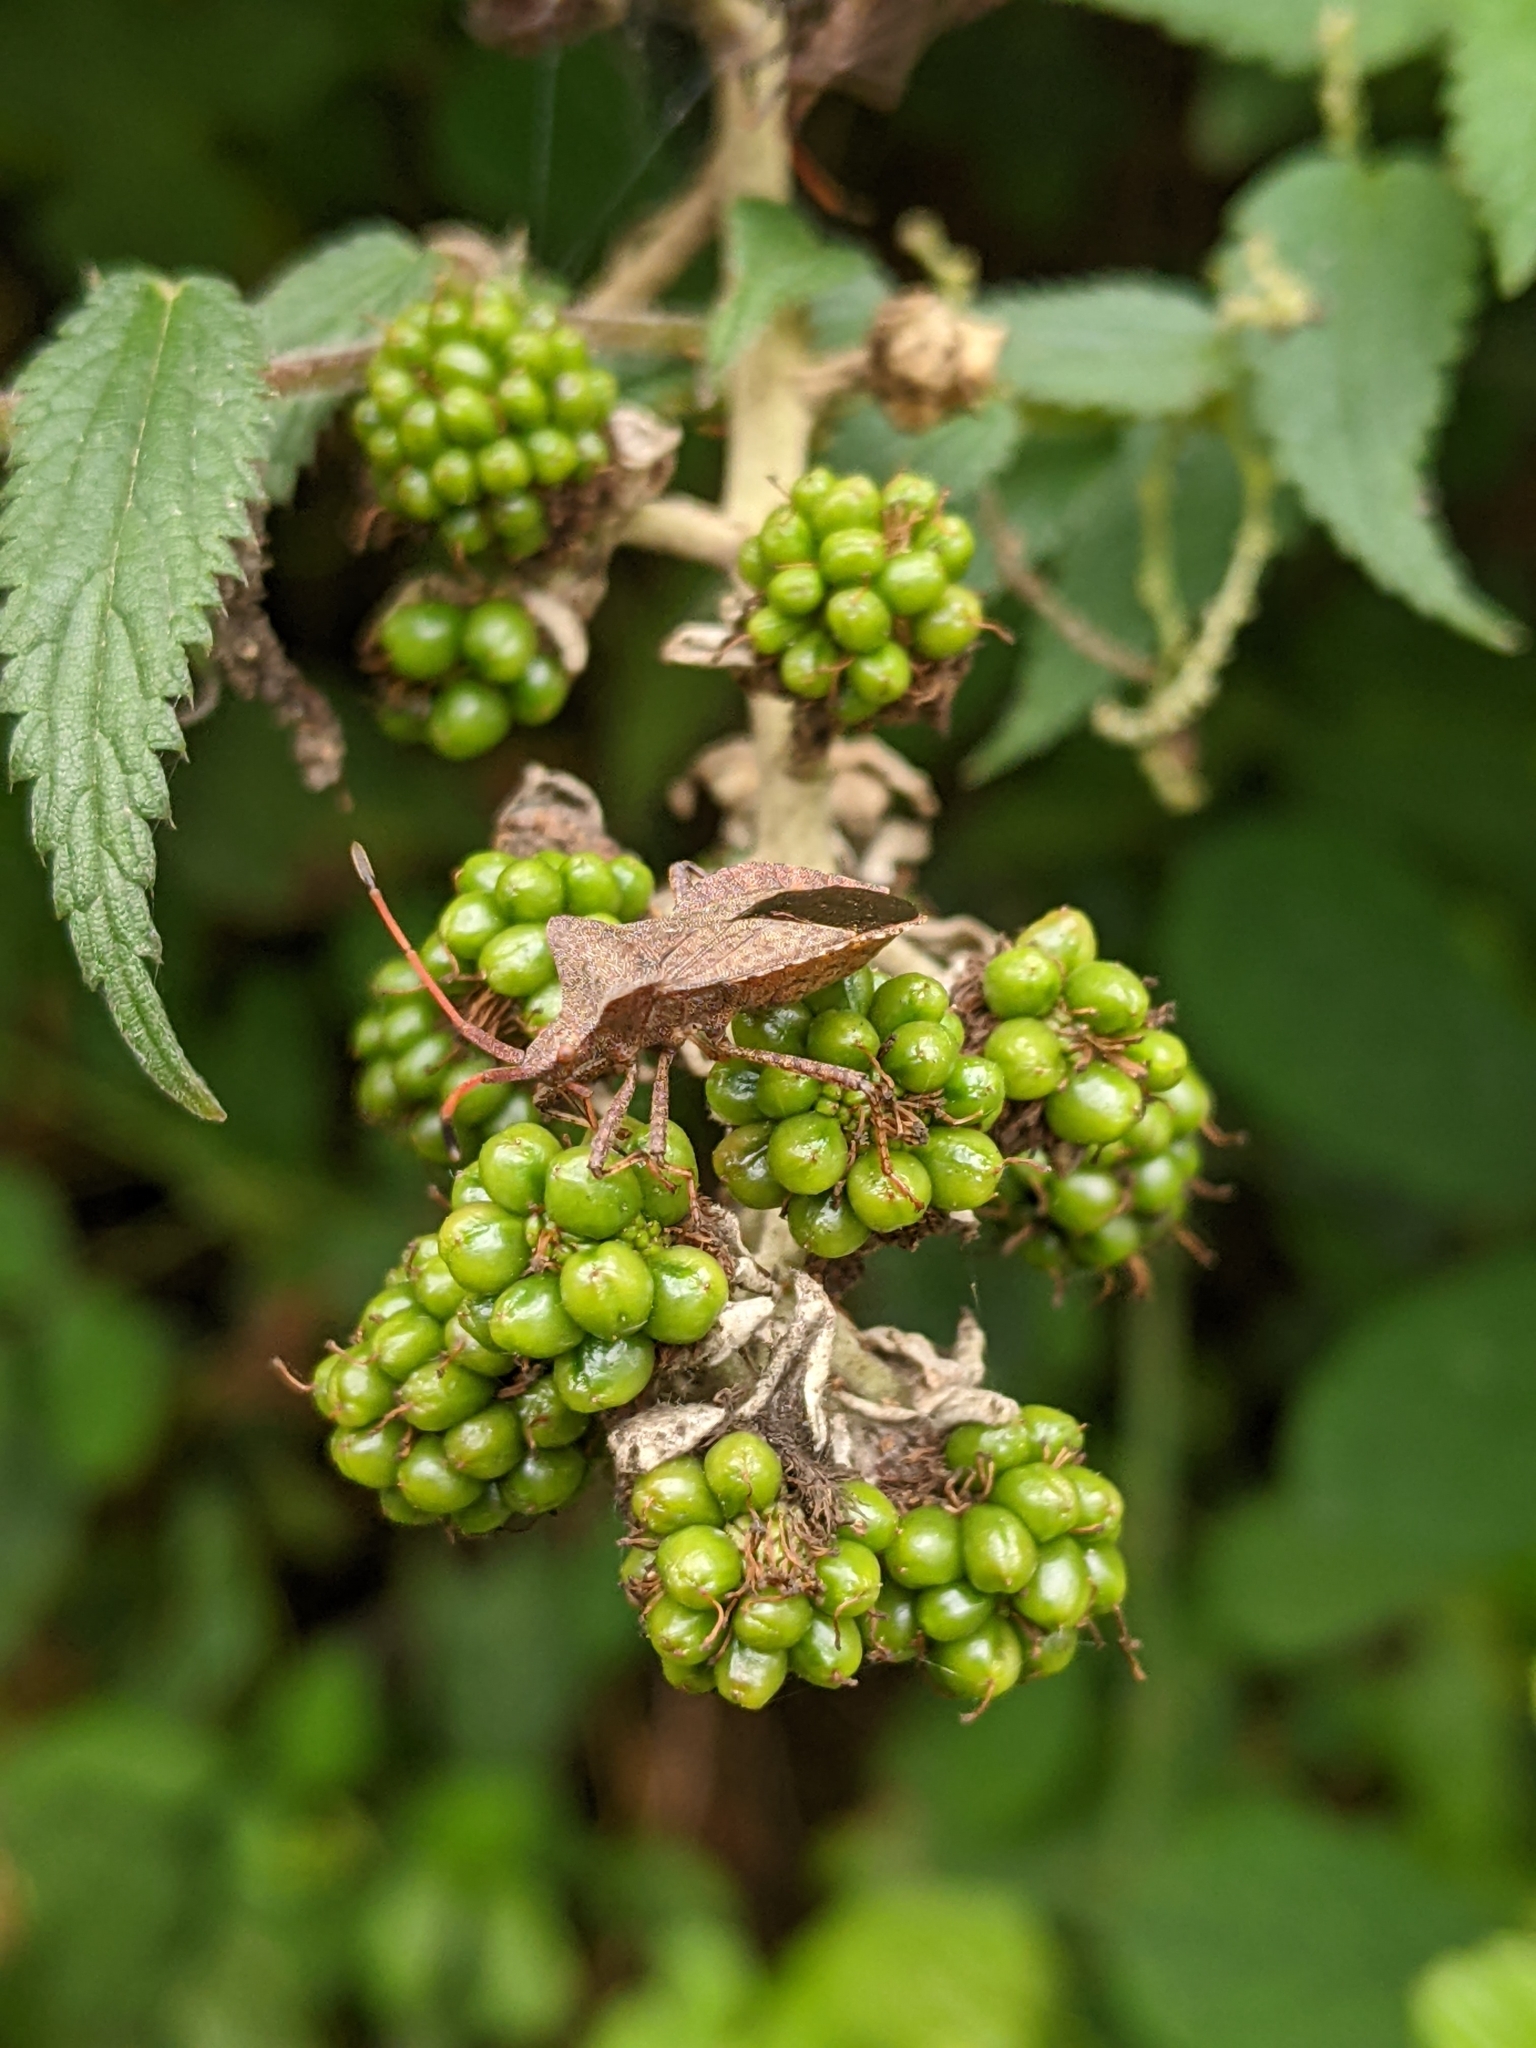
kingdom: Animalia
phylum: Arthropoda
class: Insecta
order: Hemiptera
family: Coreidae
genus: Coreus
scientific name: Coreus marginatus
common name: Dock bug
